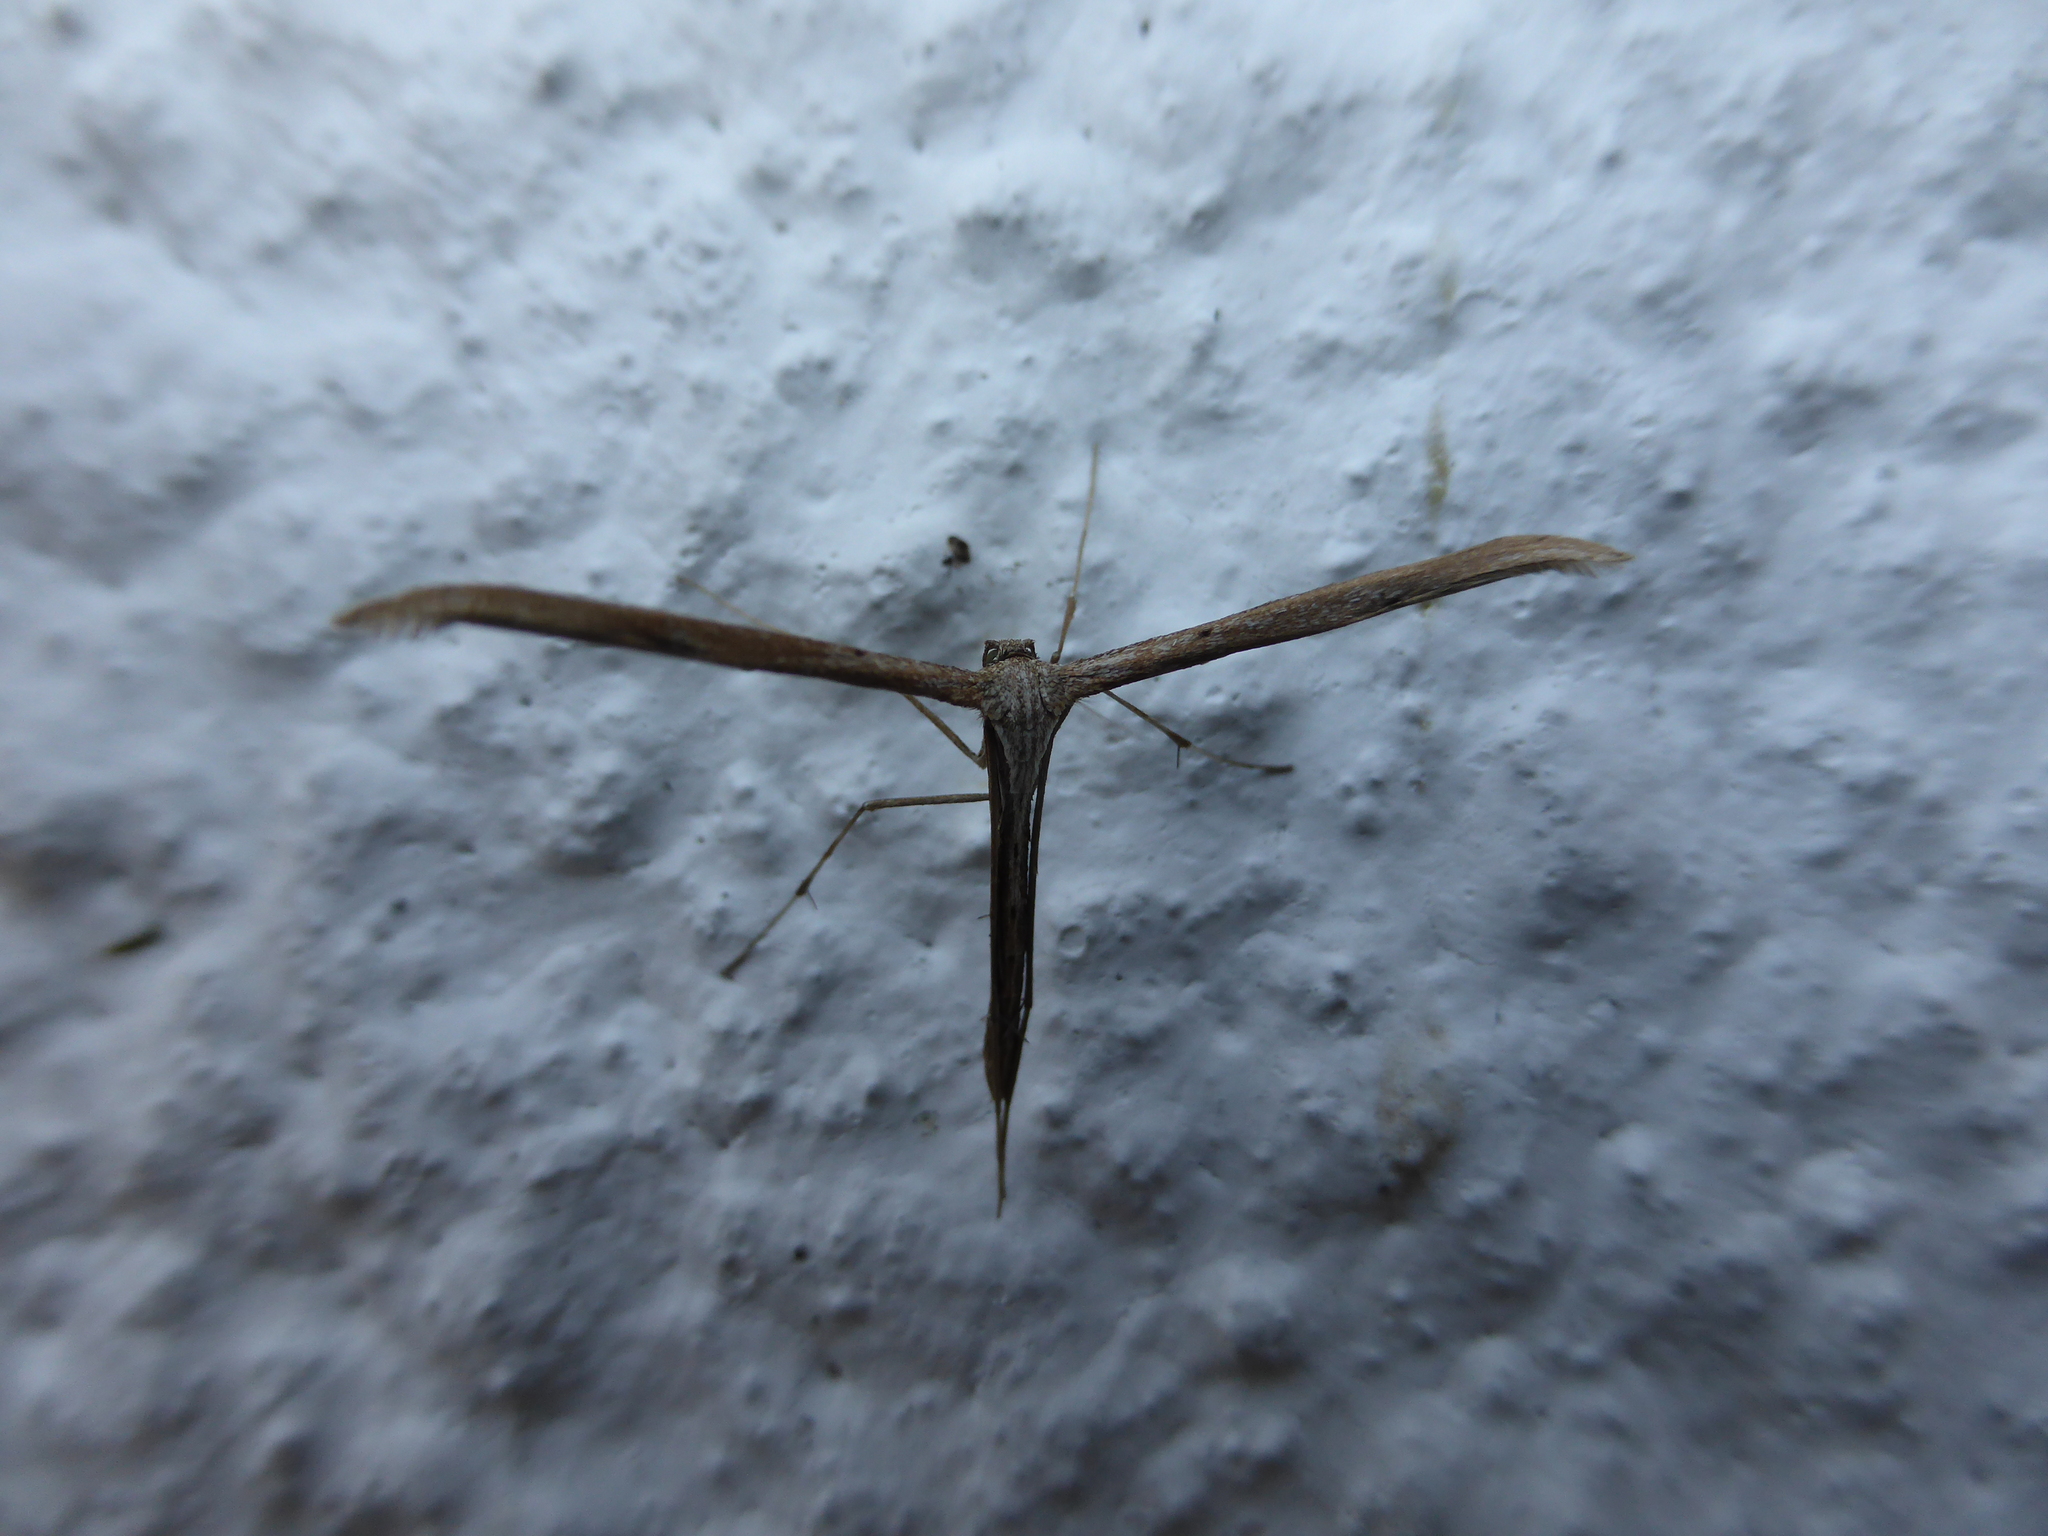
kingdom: Animalia
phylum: Arthropoda
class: Insecta
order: Lepidoptera
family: Pterophoridae
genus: Emmelina
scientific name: Emmelina monodactyla
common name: Common plume
